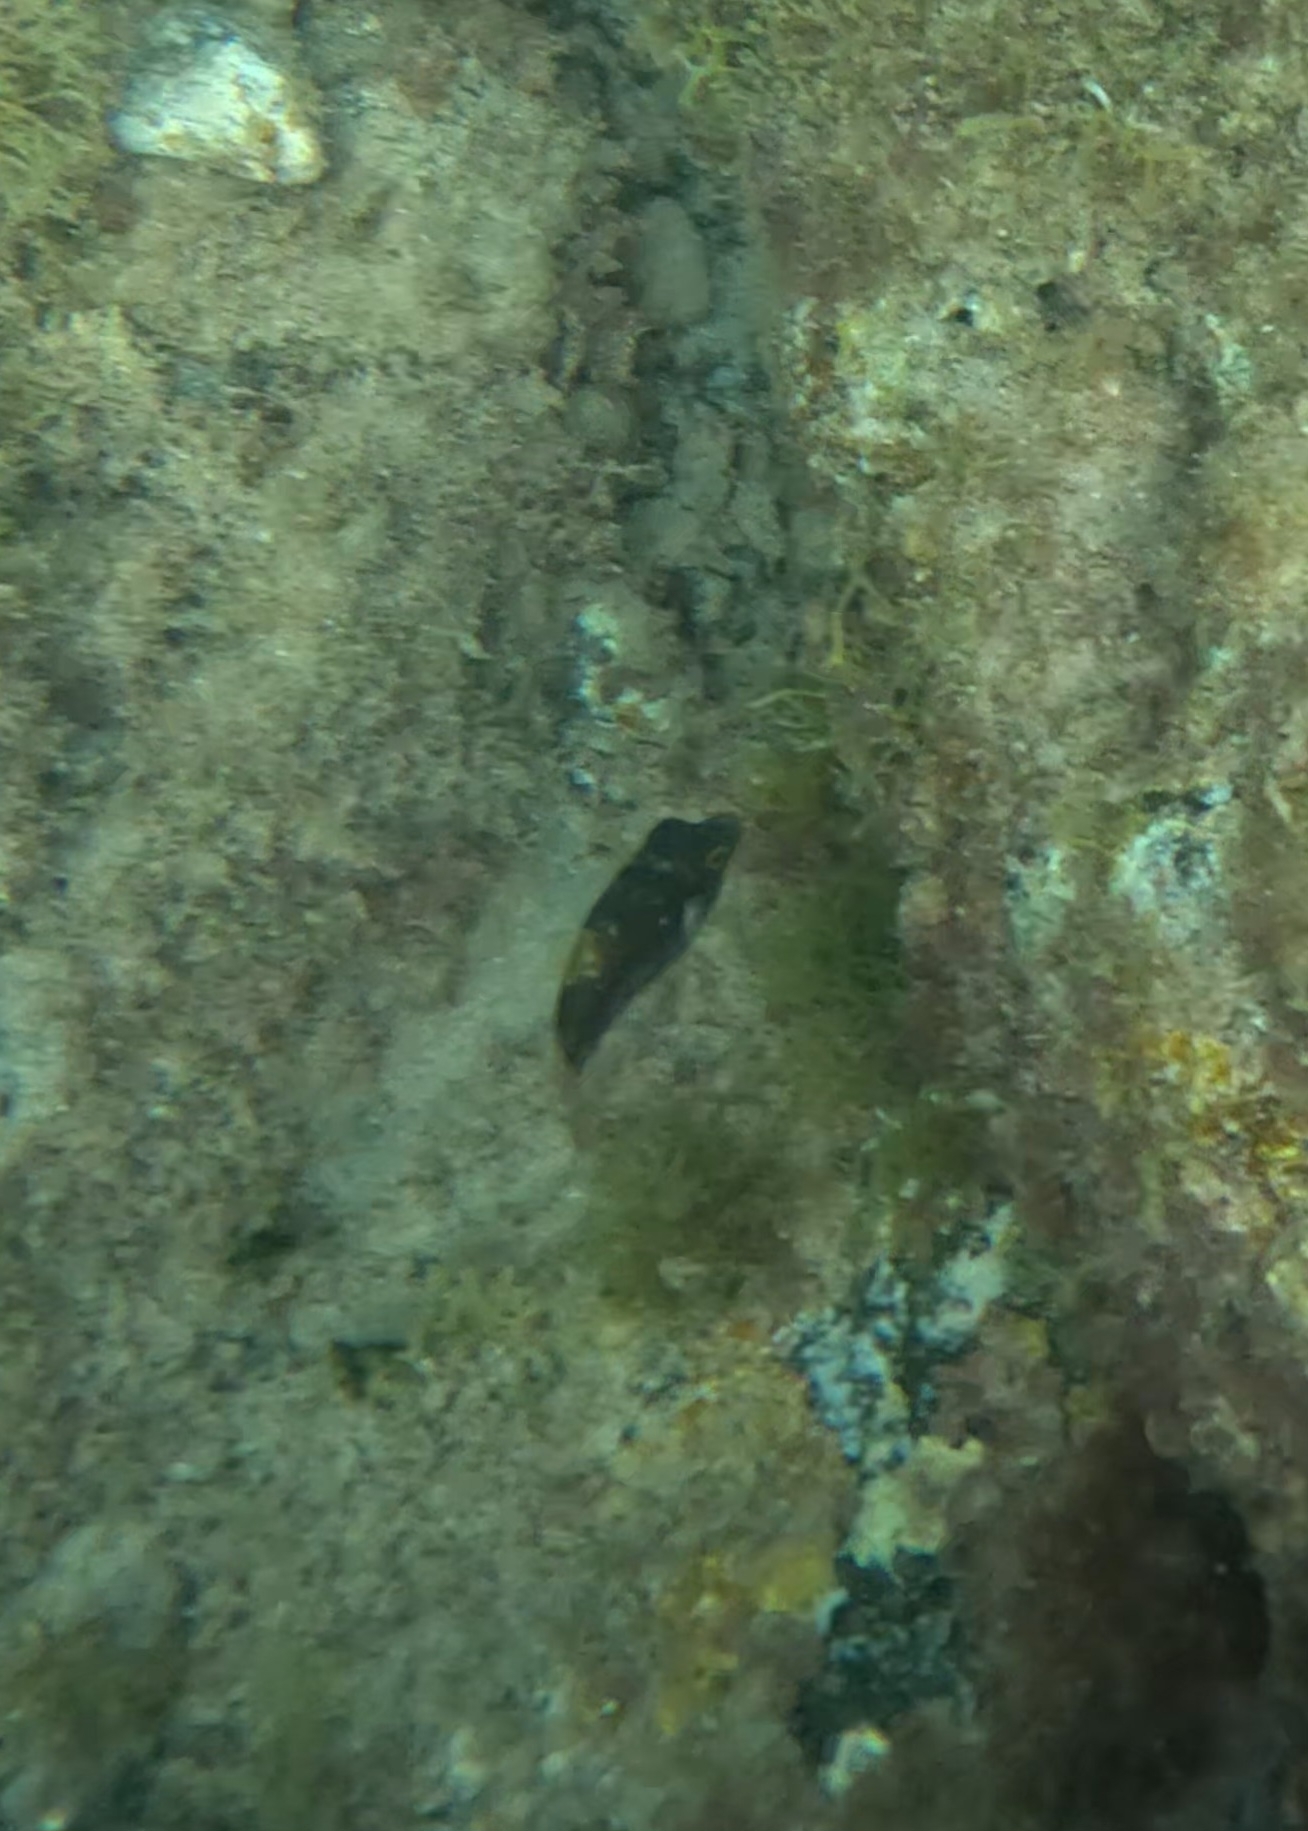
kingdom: Animalia
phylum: Chordata
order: Tetraodontiformes
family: Tetraodontidae
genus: Canthigaster
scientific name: Canthigaster capistrata
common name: Macaronesian sharpnose-puffer
